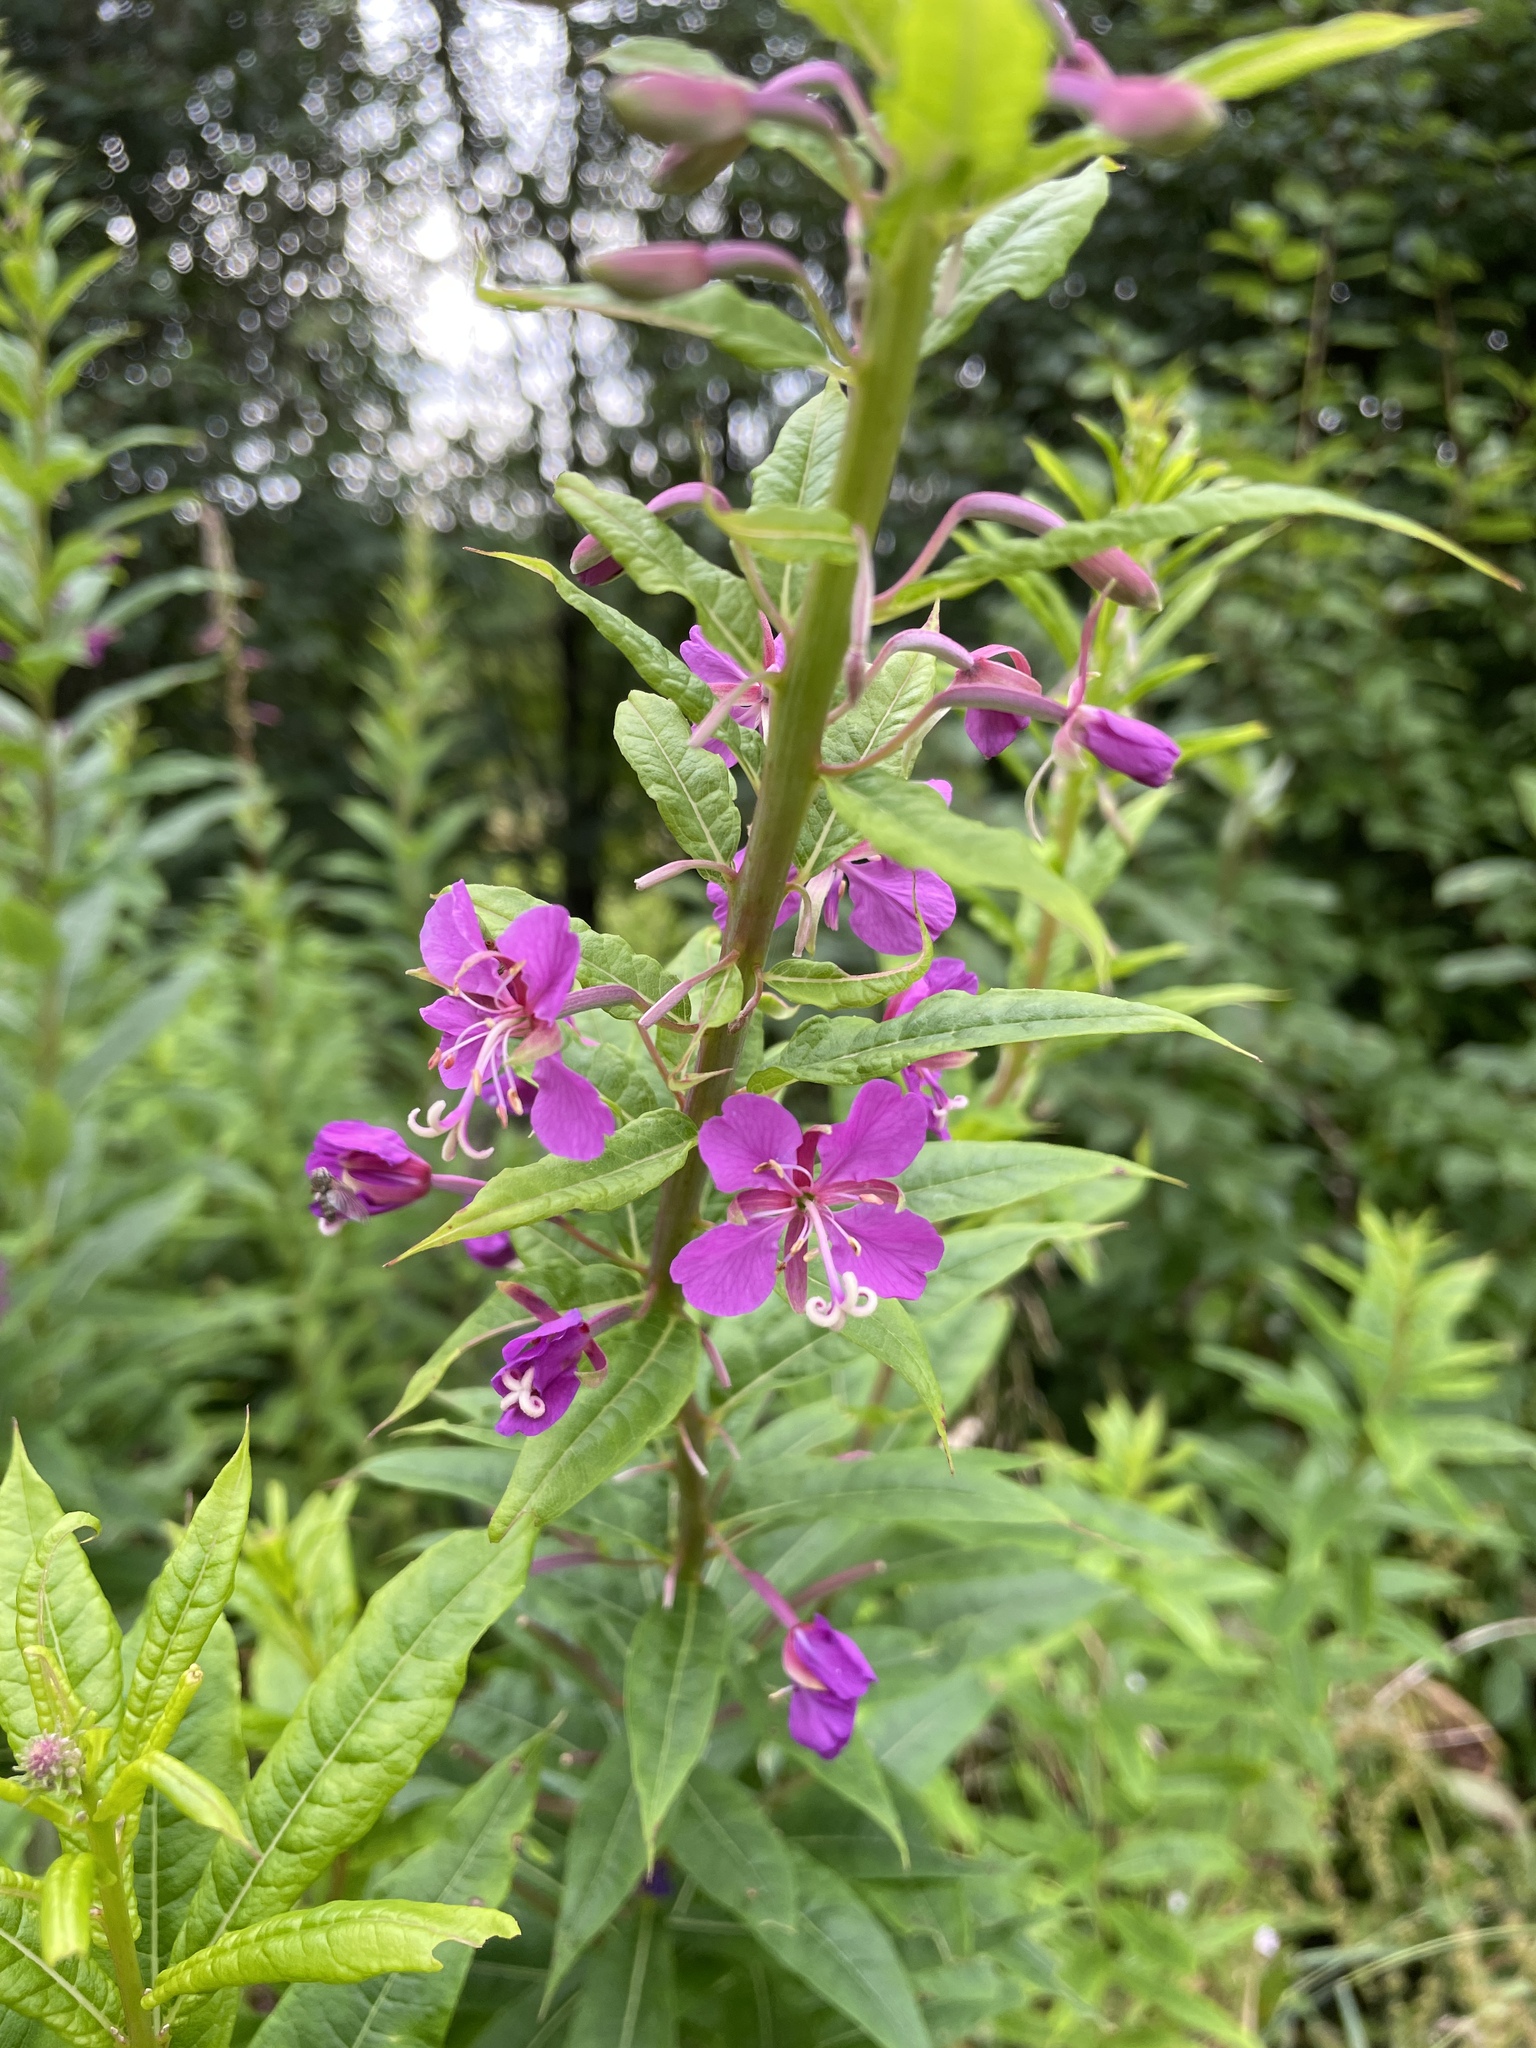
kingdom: Plantae
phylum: Tracheophyta
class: Magnoliopsida
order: Myrtales
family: Onagraceae
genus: Chamaenerion
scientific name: Chamaenerion angustifolium
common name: Fireweed
